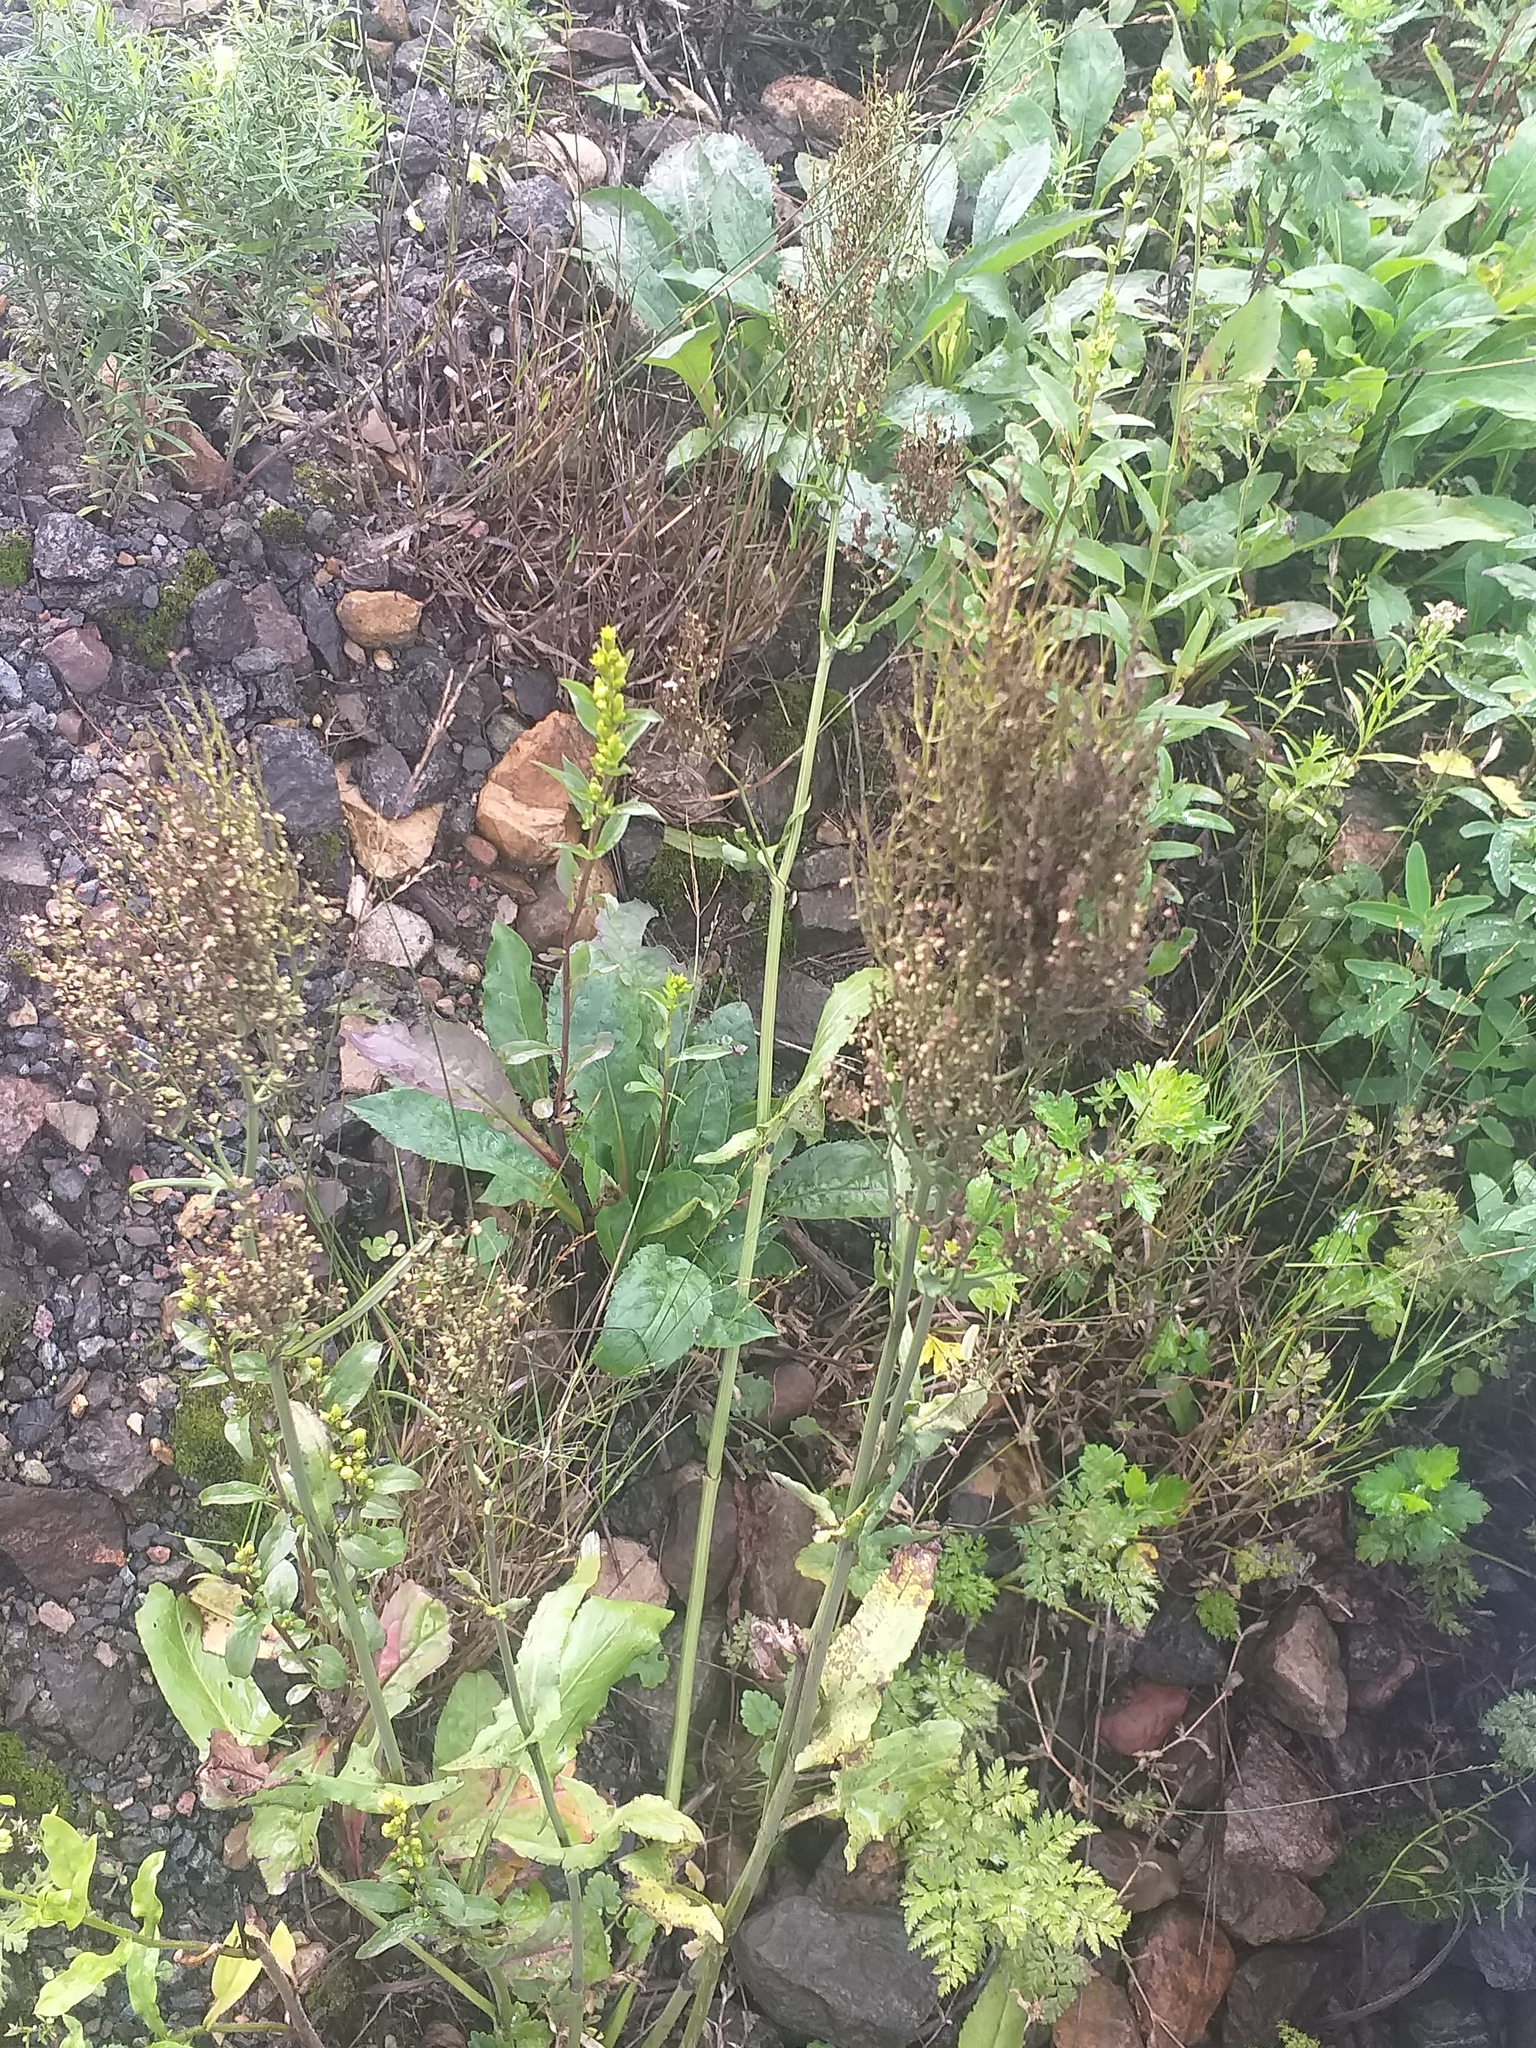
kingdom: Plantae
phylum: Tracheophyta
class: Magnoliopsida
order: Caryophyllales
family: Polygonaceae
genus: Rumex
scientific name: Rumex thyrsiflorus
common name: Garden sorrel
